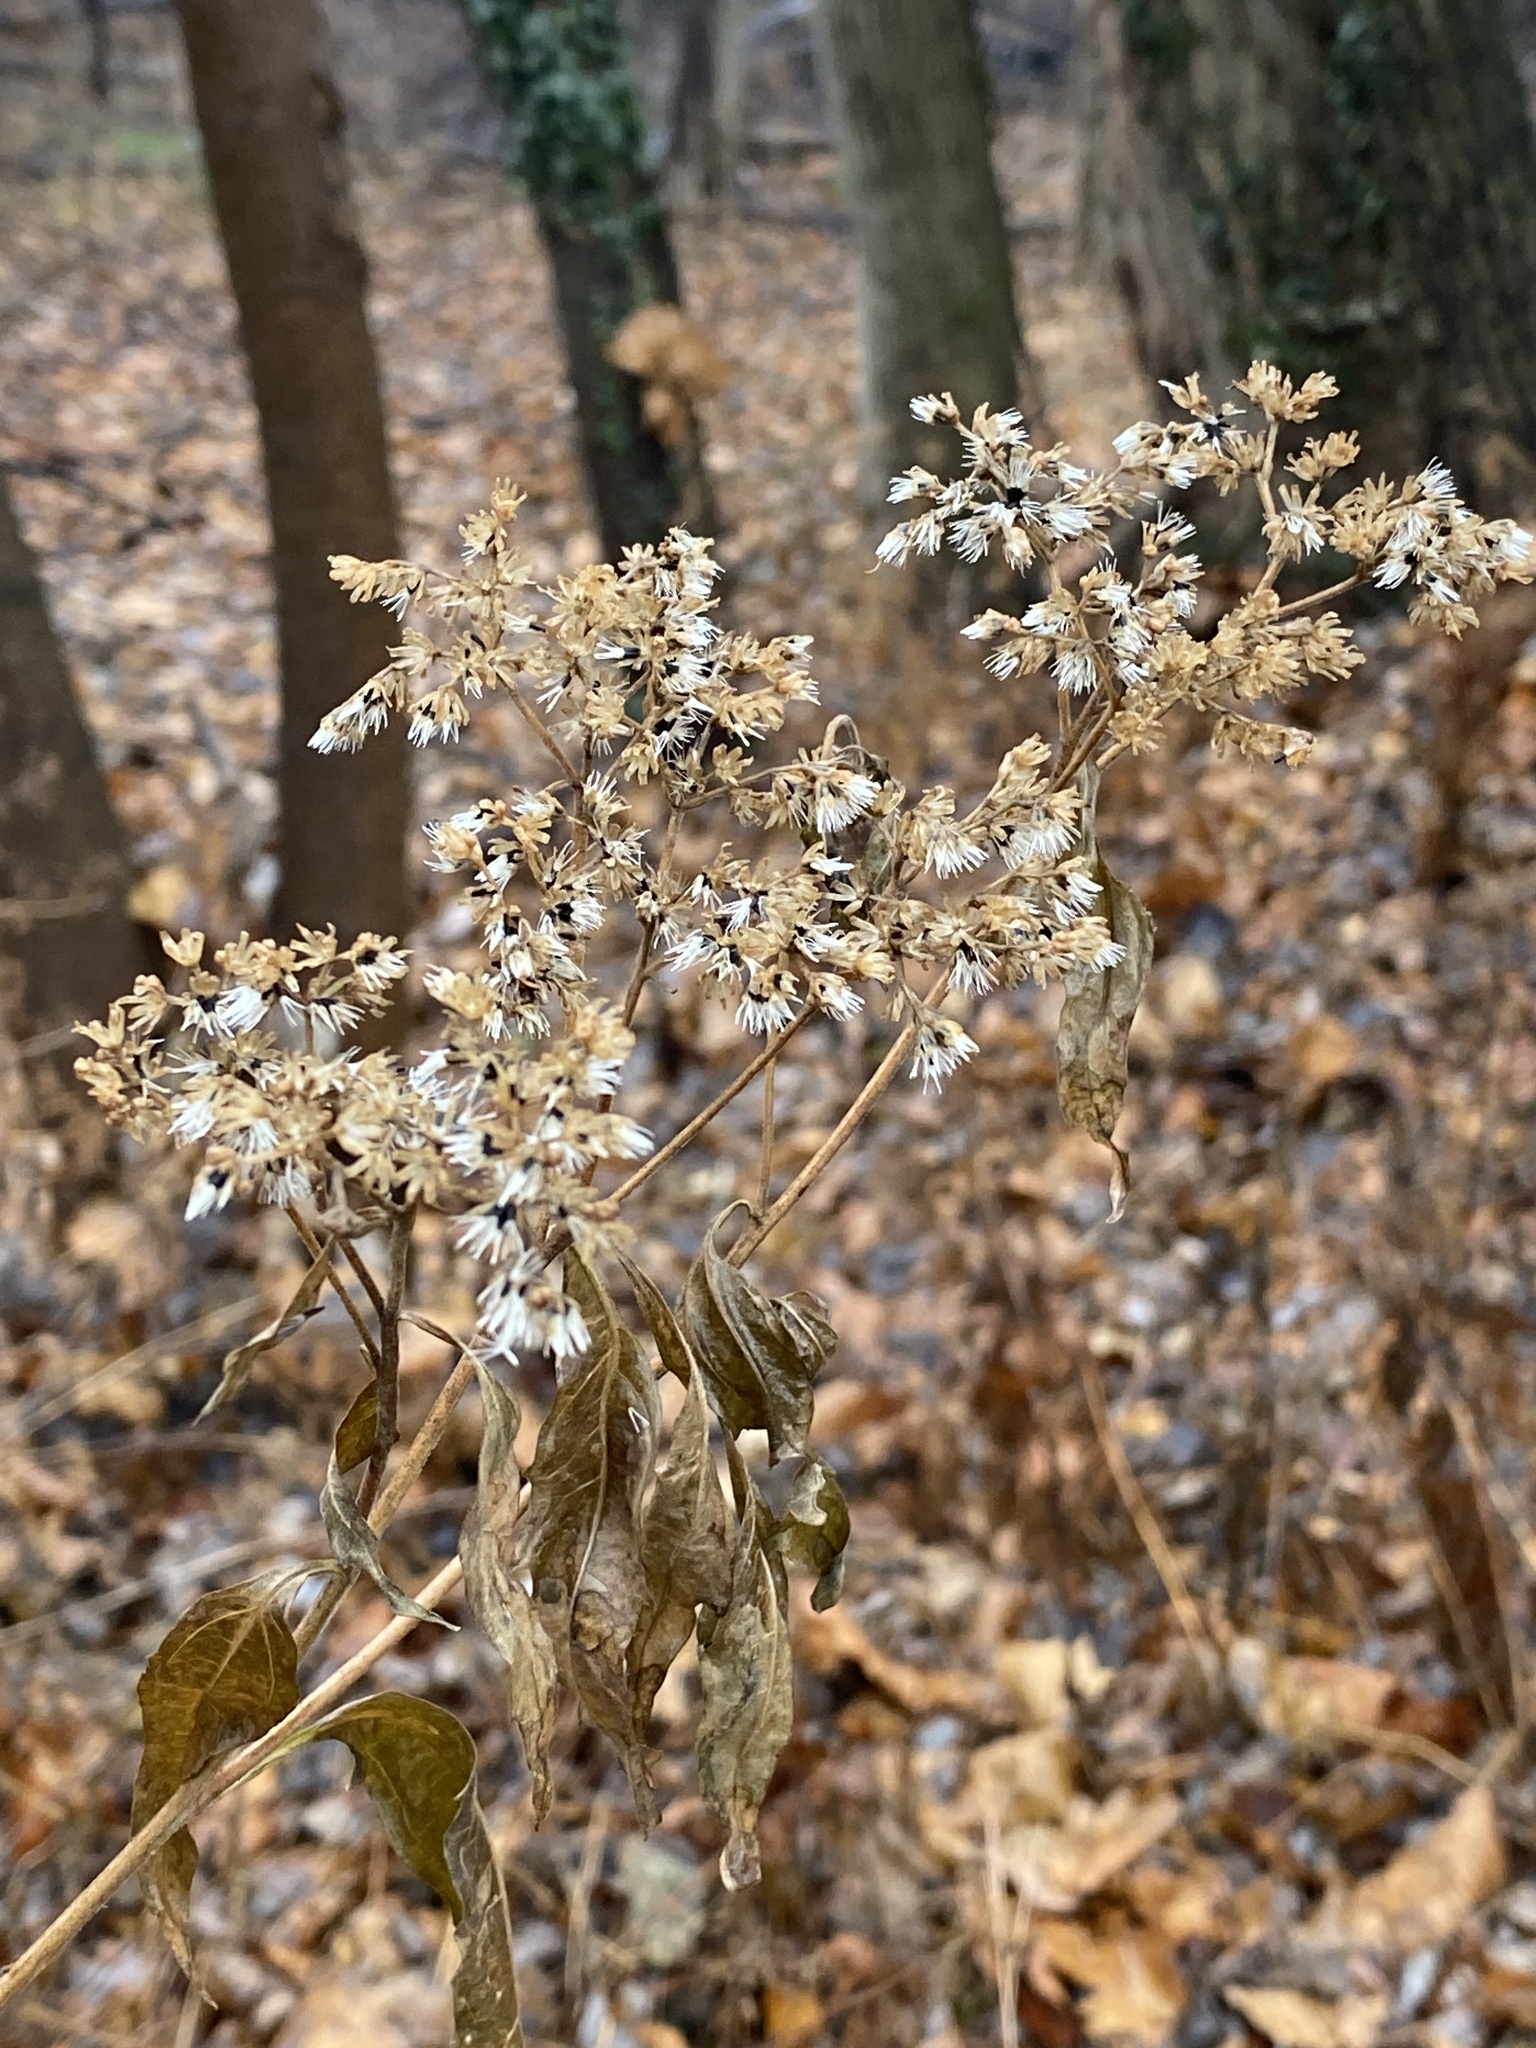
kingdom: Plantae
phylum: Tracheophyta
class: Magnoliopsida
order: Asterales
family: Asteraceae
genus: Ageratina
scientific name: Ageratina altissima
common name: White snakeroot
